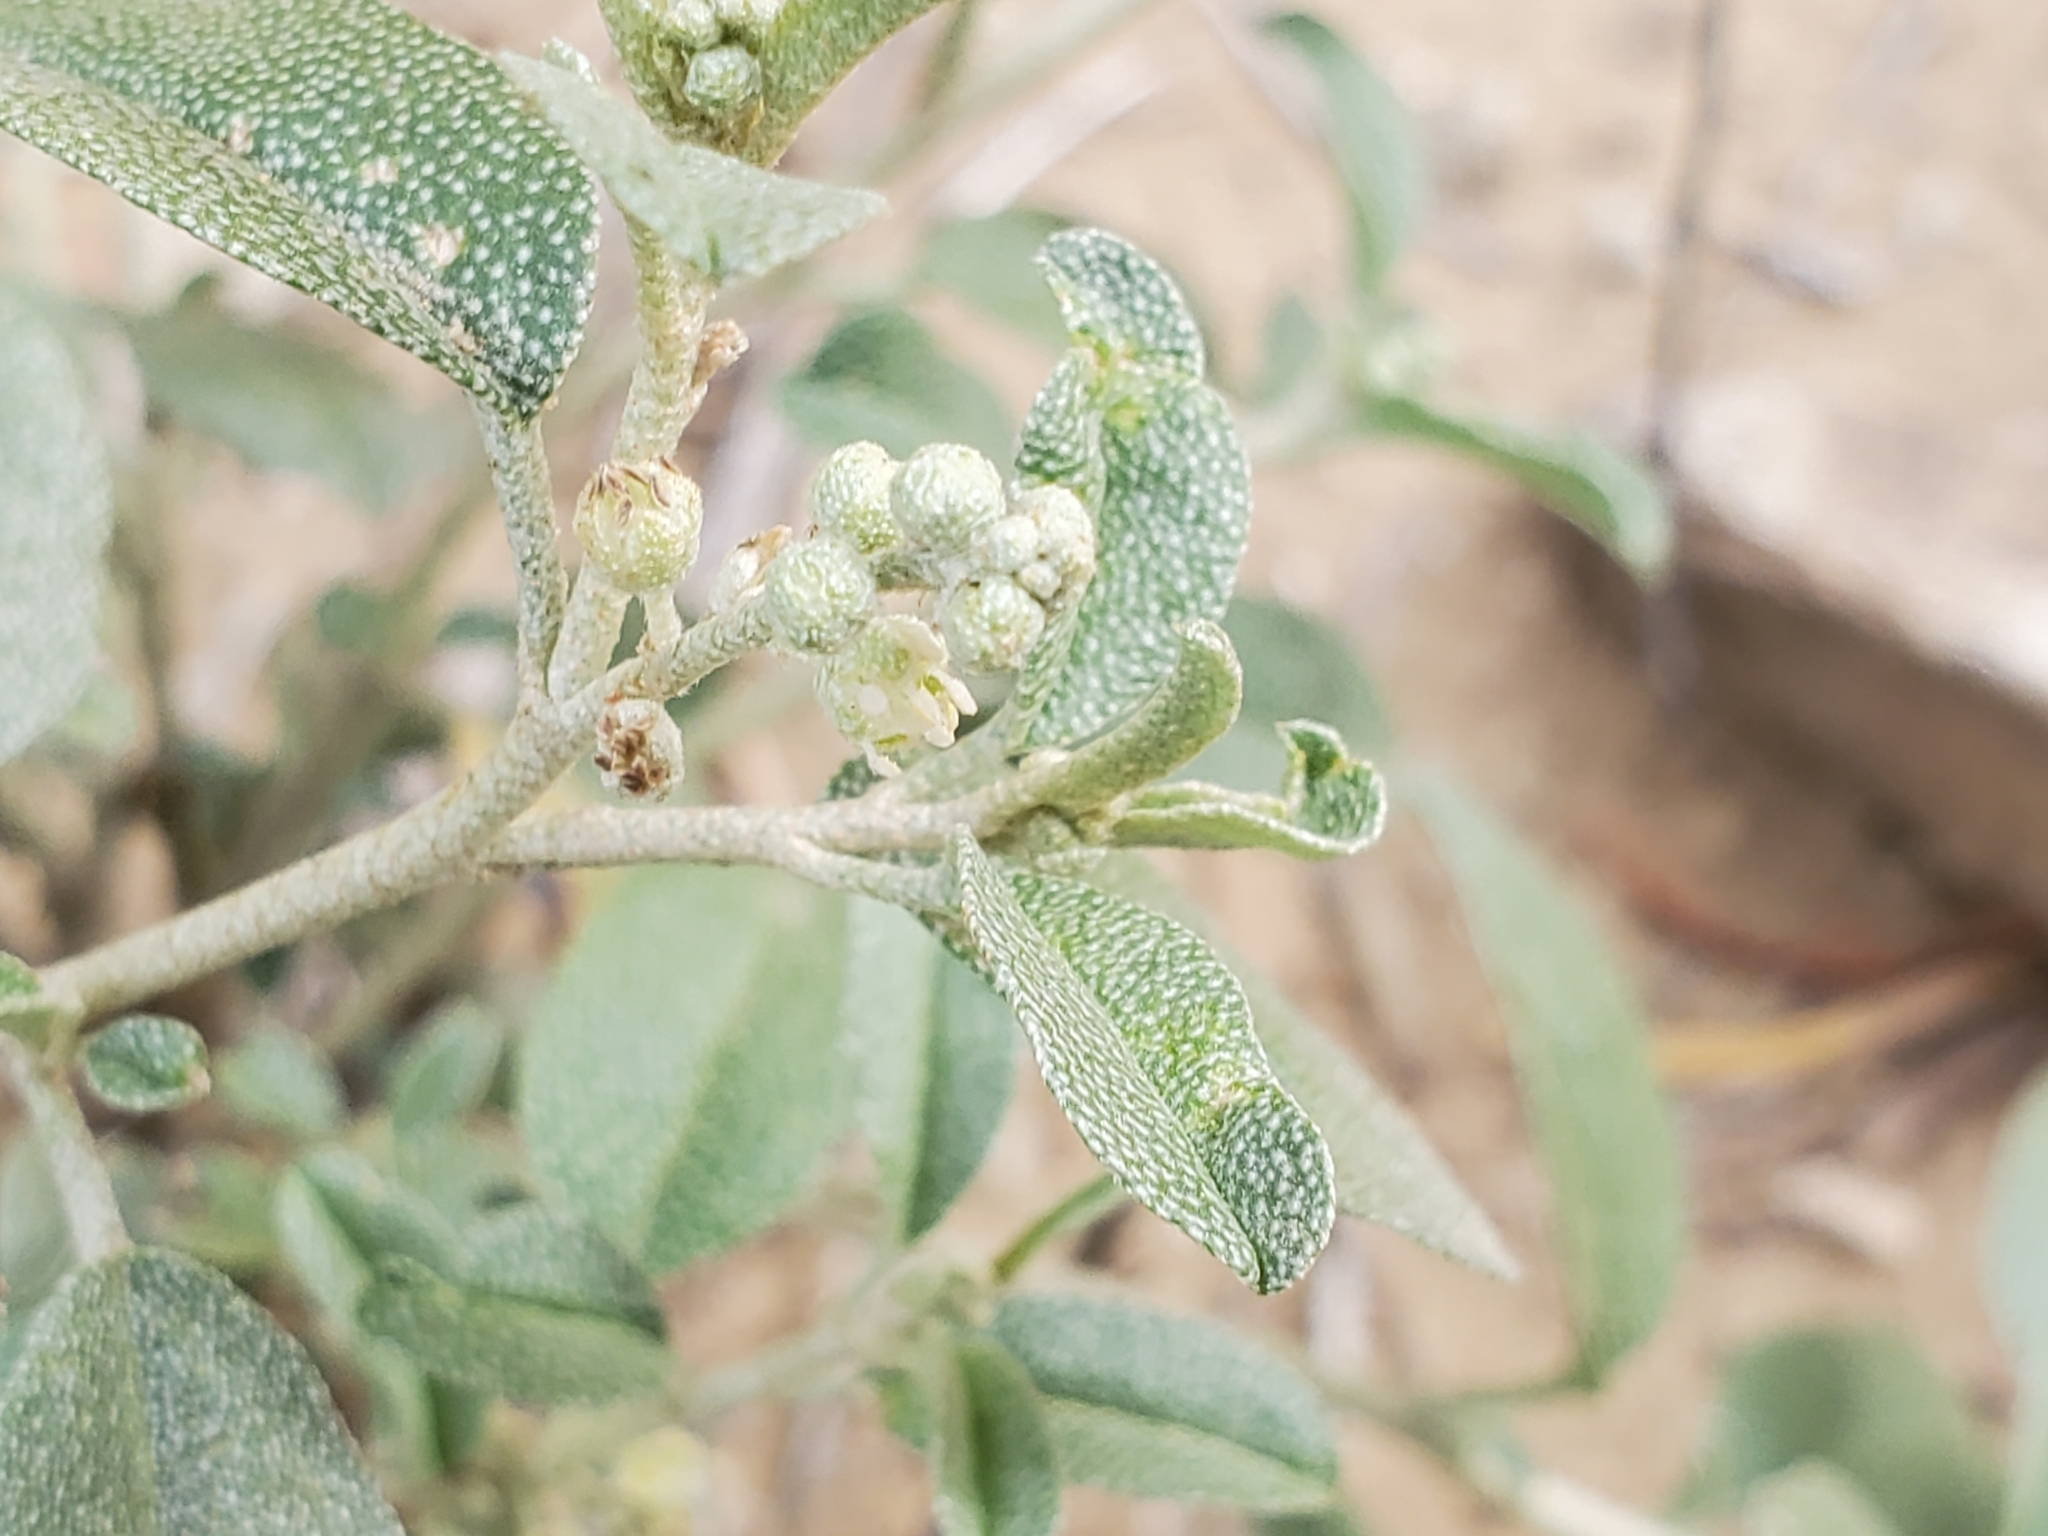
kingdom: Plantae
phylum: Tracheophyta
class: Magnoliopsida
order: Malpighiales
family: Euphorbiaceae
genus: Croton
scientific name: Croton dioicus
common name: Grassland croton
